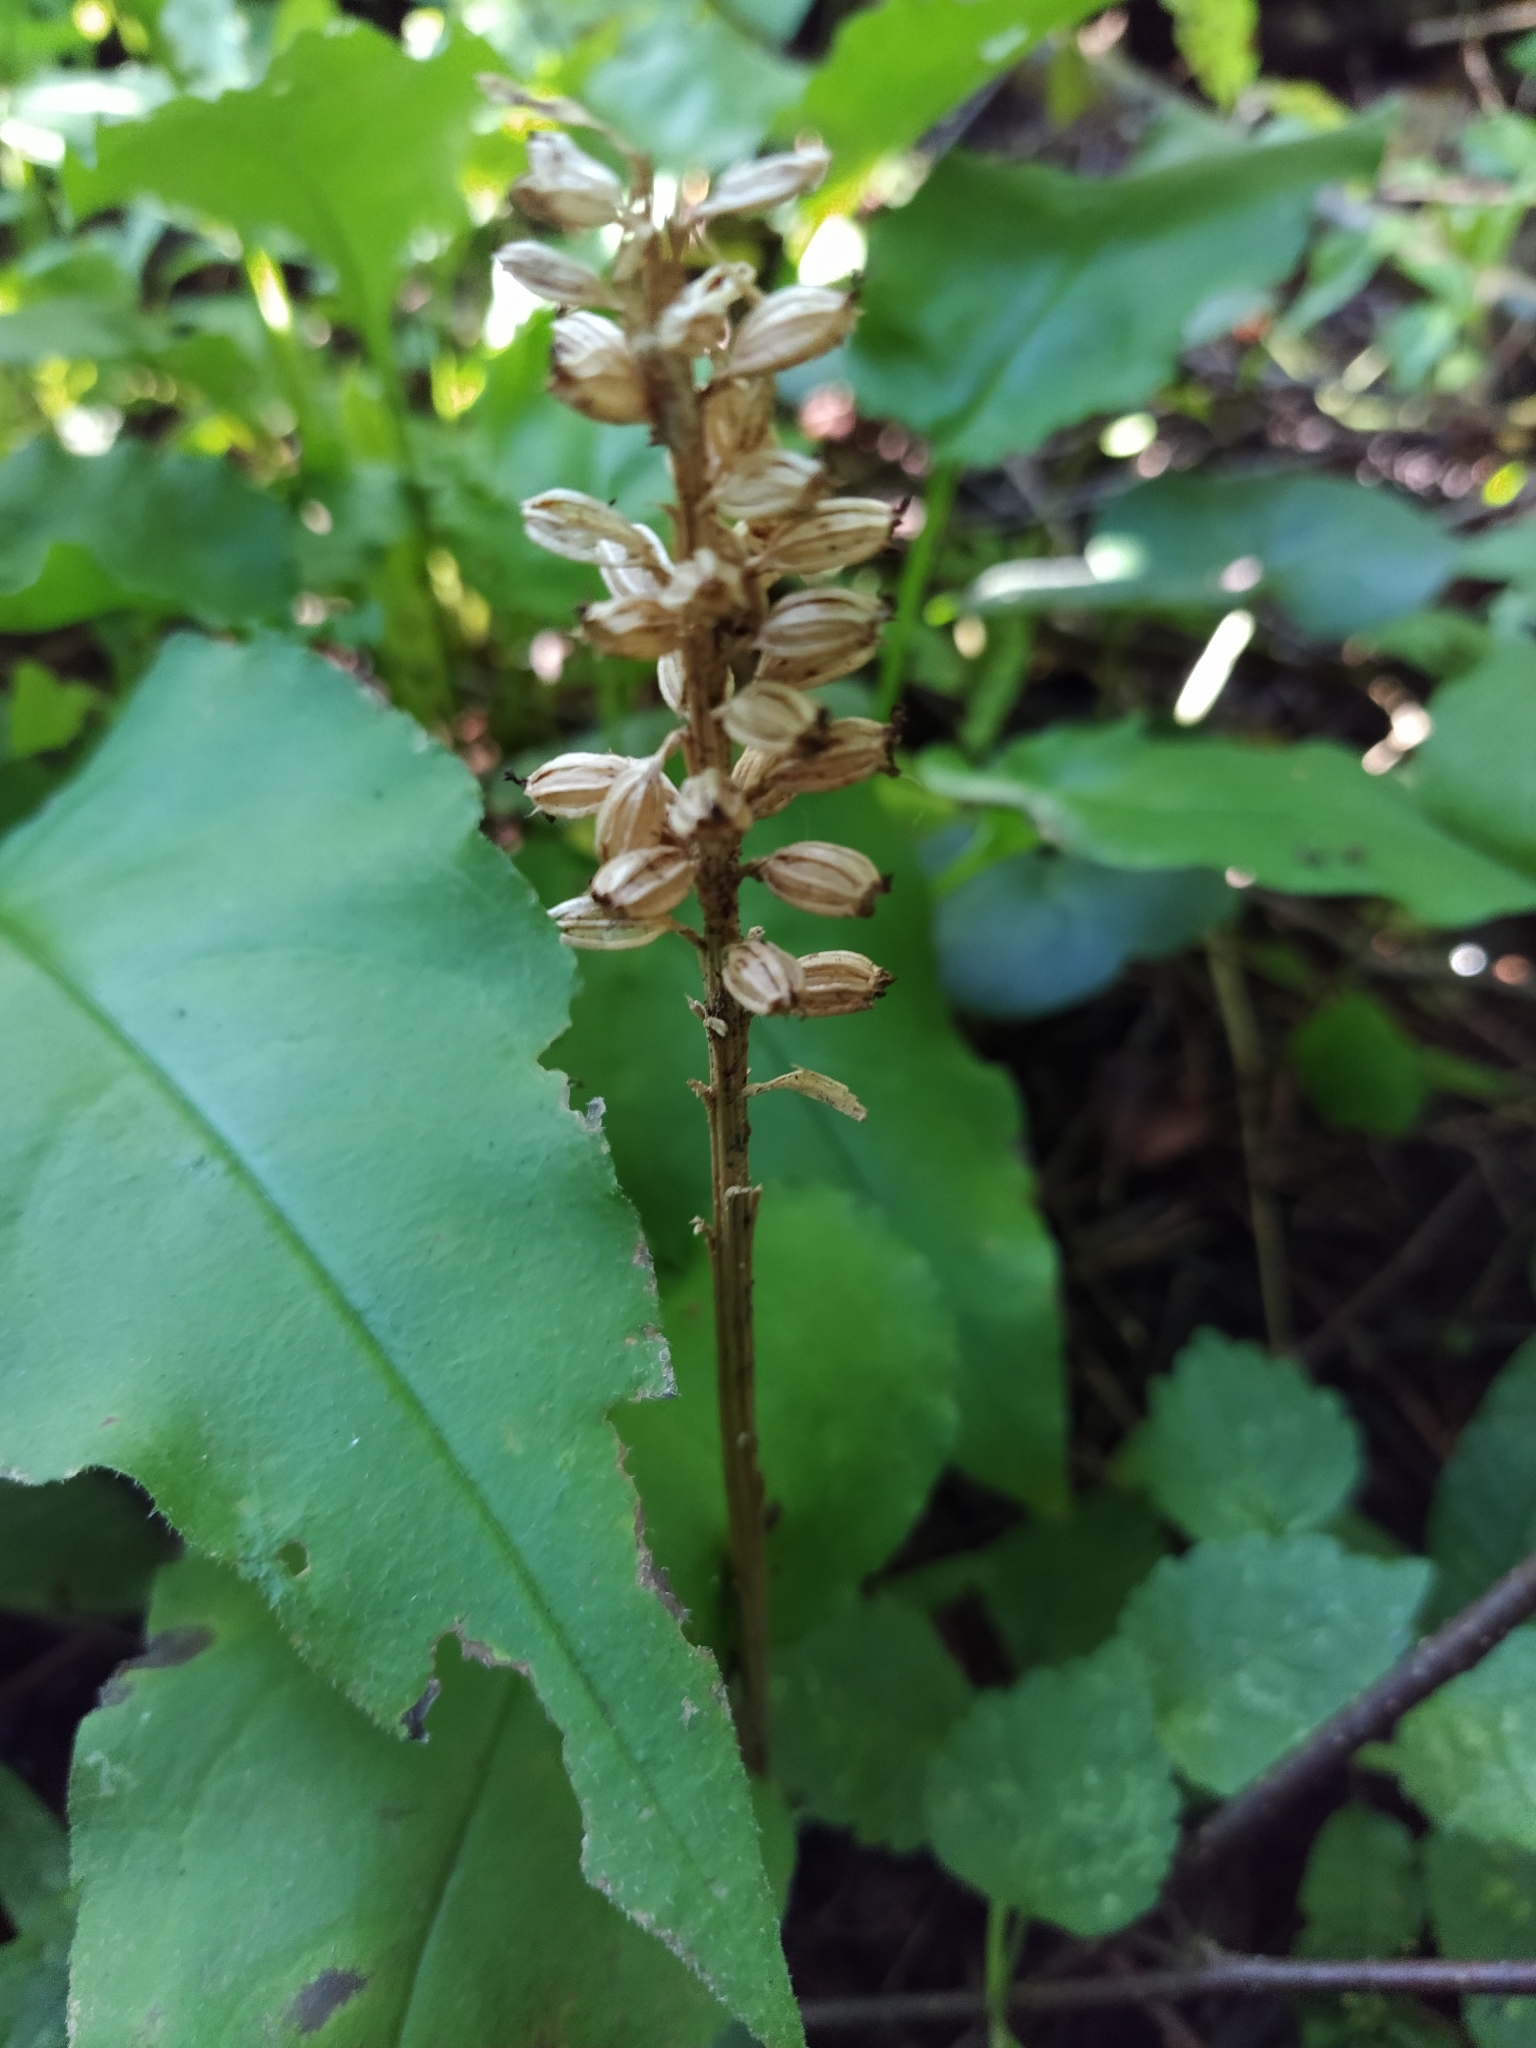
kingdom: Plantae
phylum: Tracheophyta
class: Liliopsida
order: Asparagales
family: Orchidaceae
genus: Neottia
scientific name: Neottia nidus-avis
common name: Bird's-nest orchid
